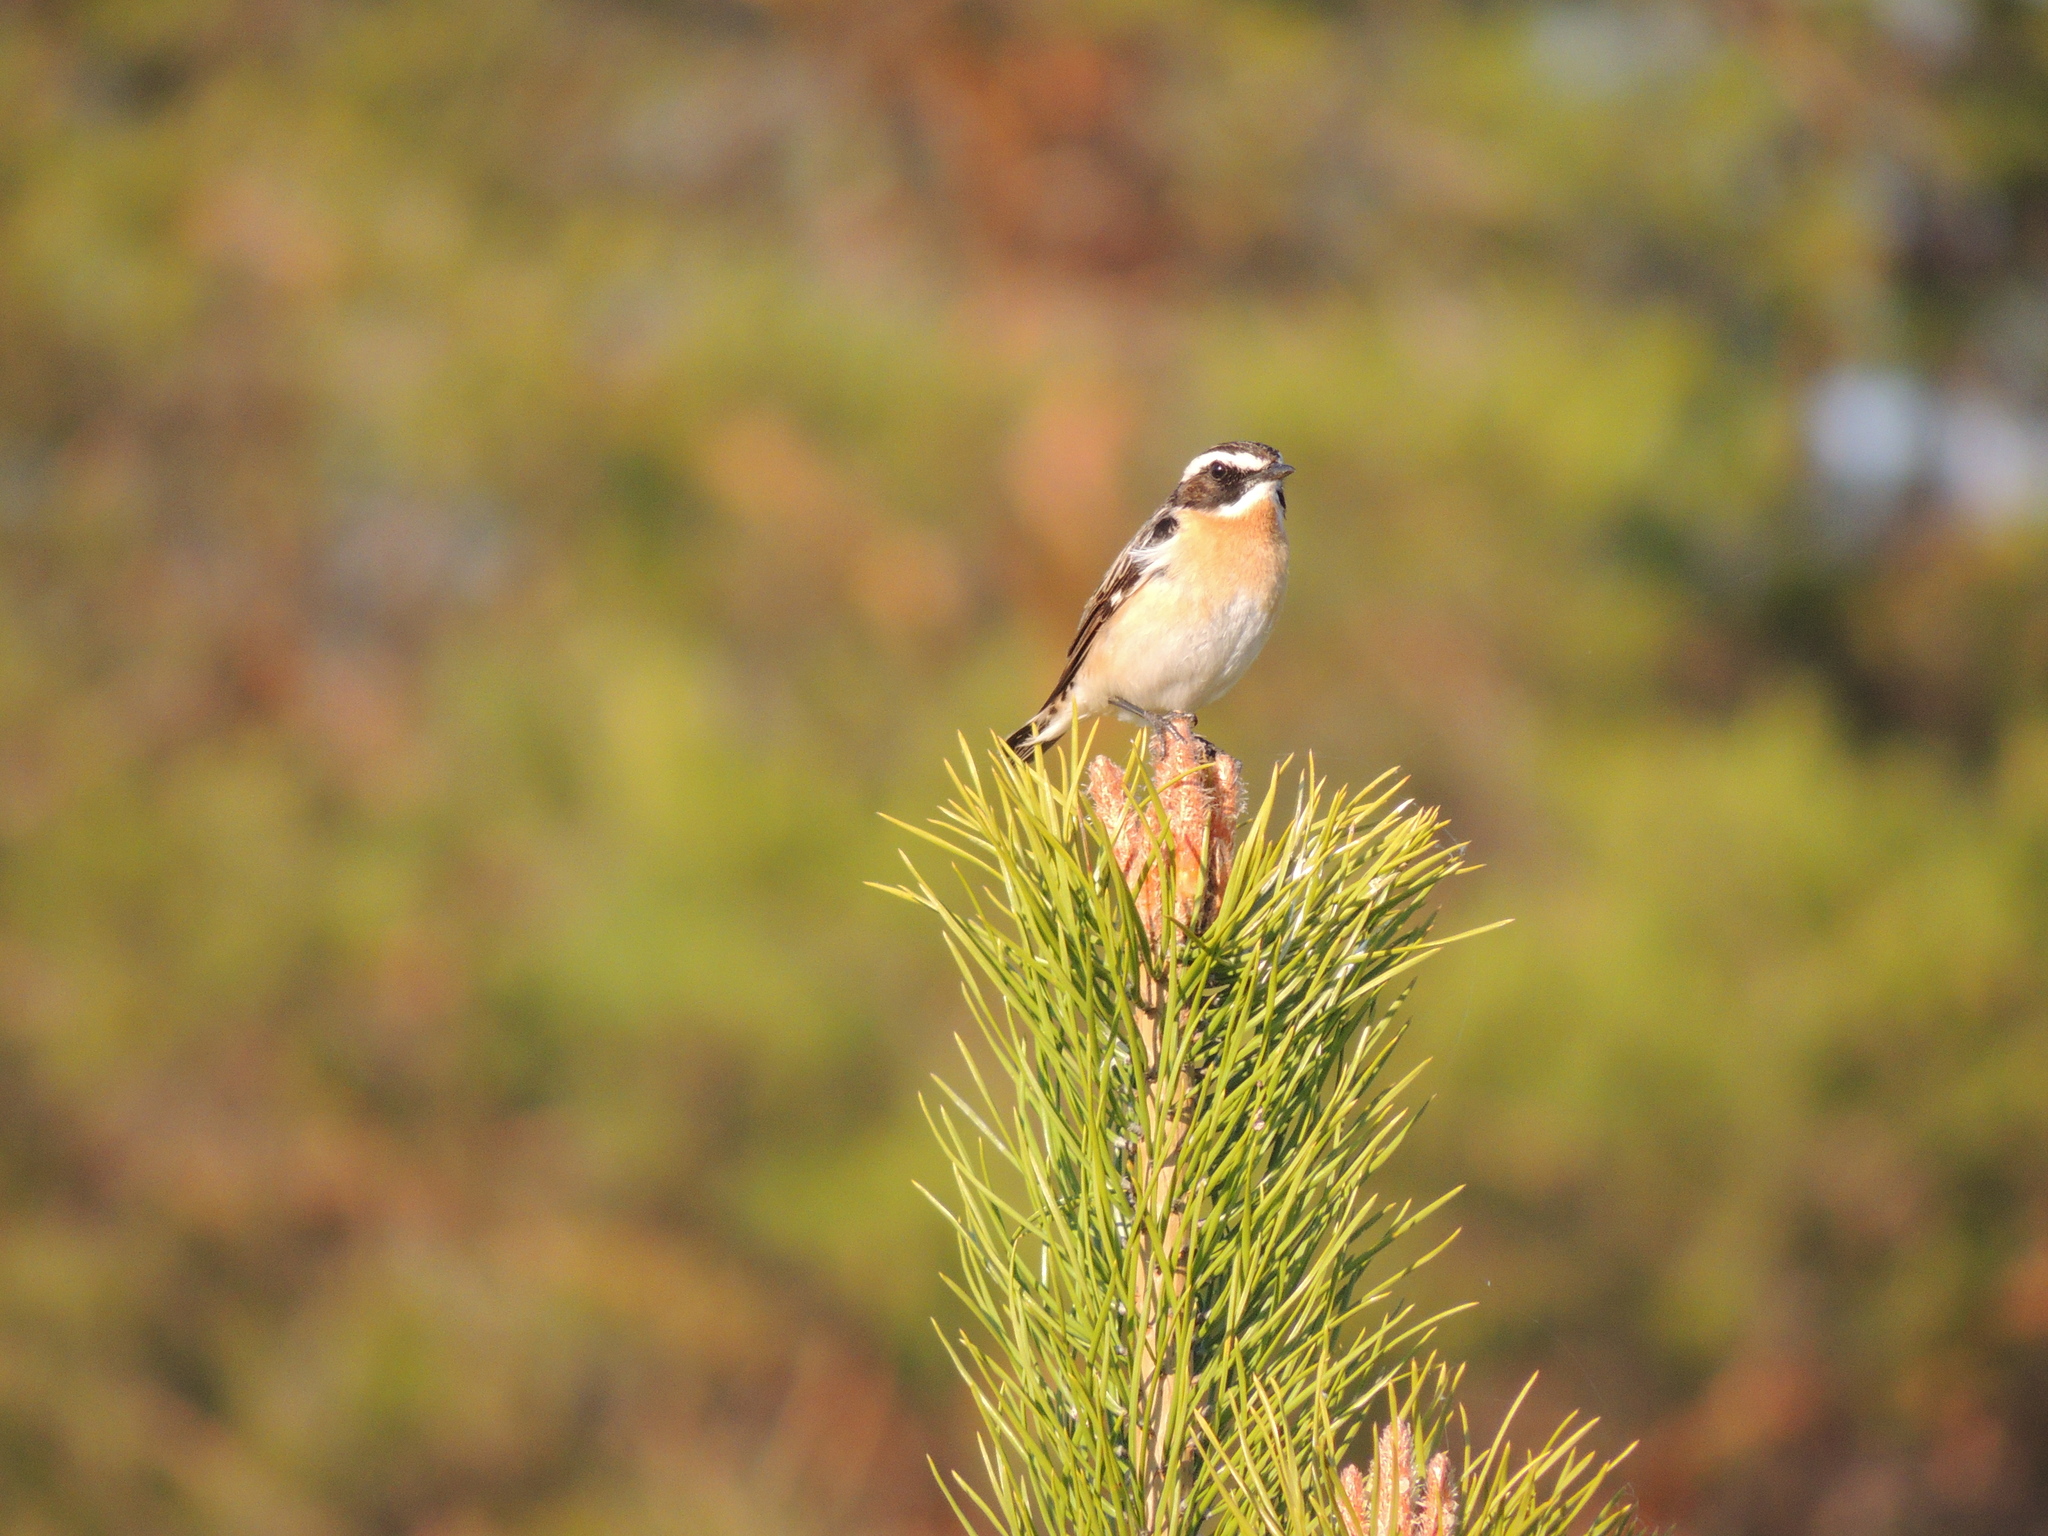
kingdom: Animalia
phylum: Chordata
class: Aves
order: Passeriformes
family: Muscicapidae
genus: Saxicola
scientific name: Saxicola rubetra
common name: Whinchat
